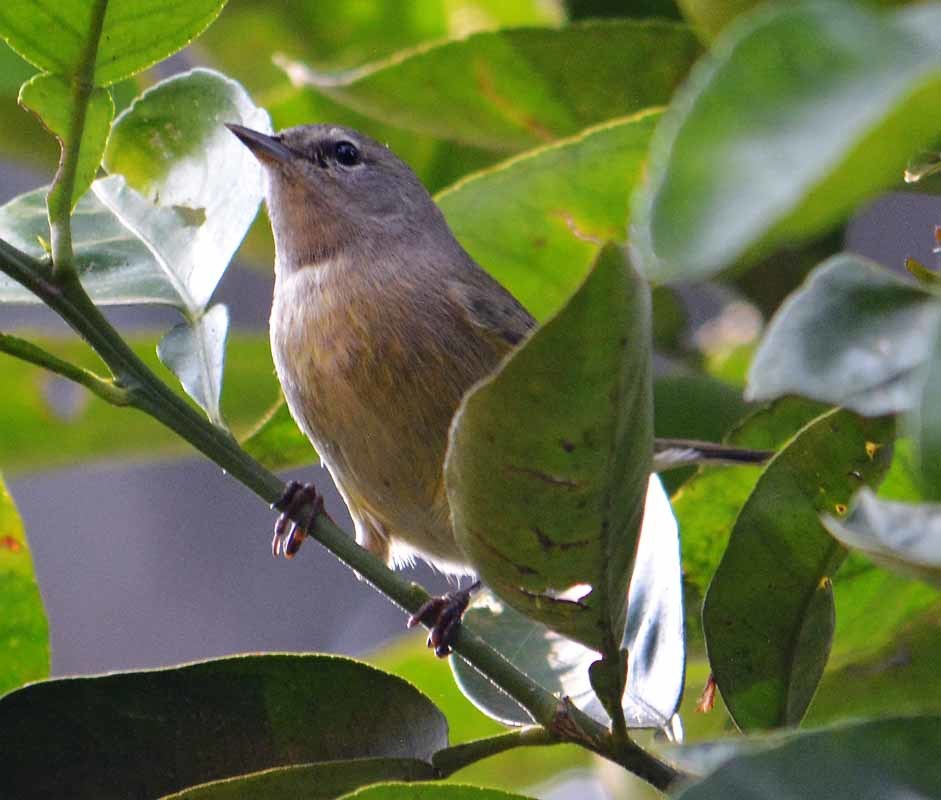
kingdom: Animalia
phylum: Chordata
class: Aves
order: Passeriformes
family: Parulidae
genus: Leiothlypis
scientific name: Leiothlypis celata
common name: Orange-crowned warbler
